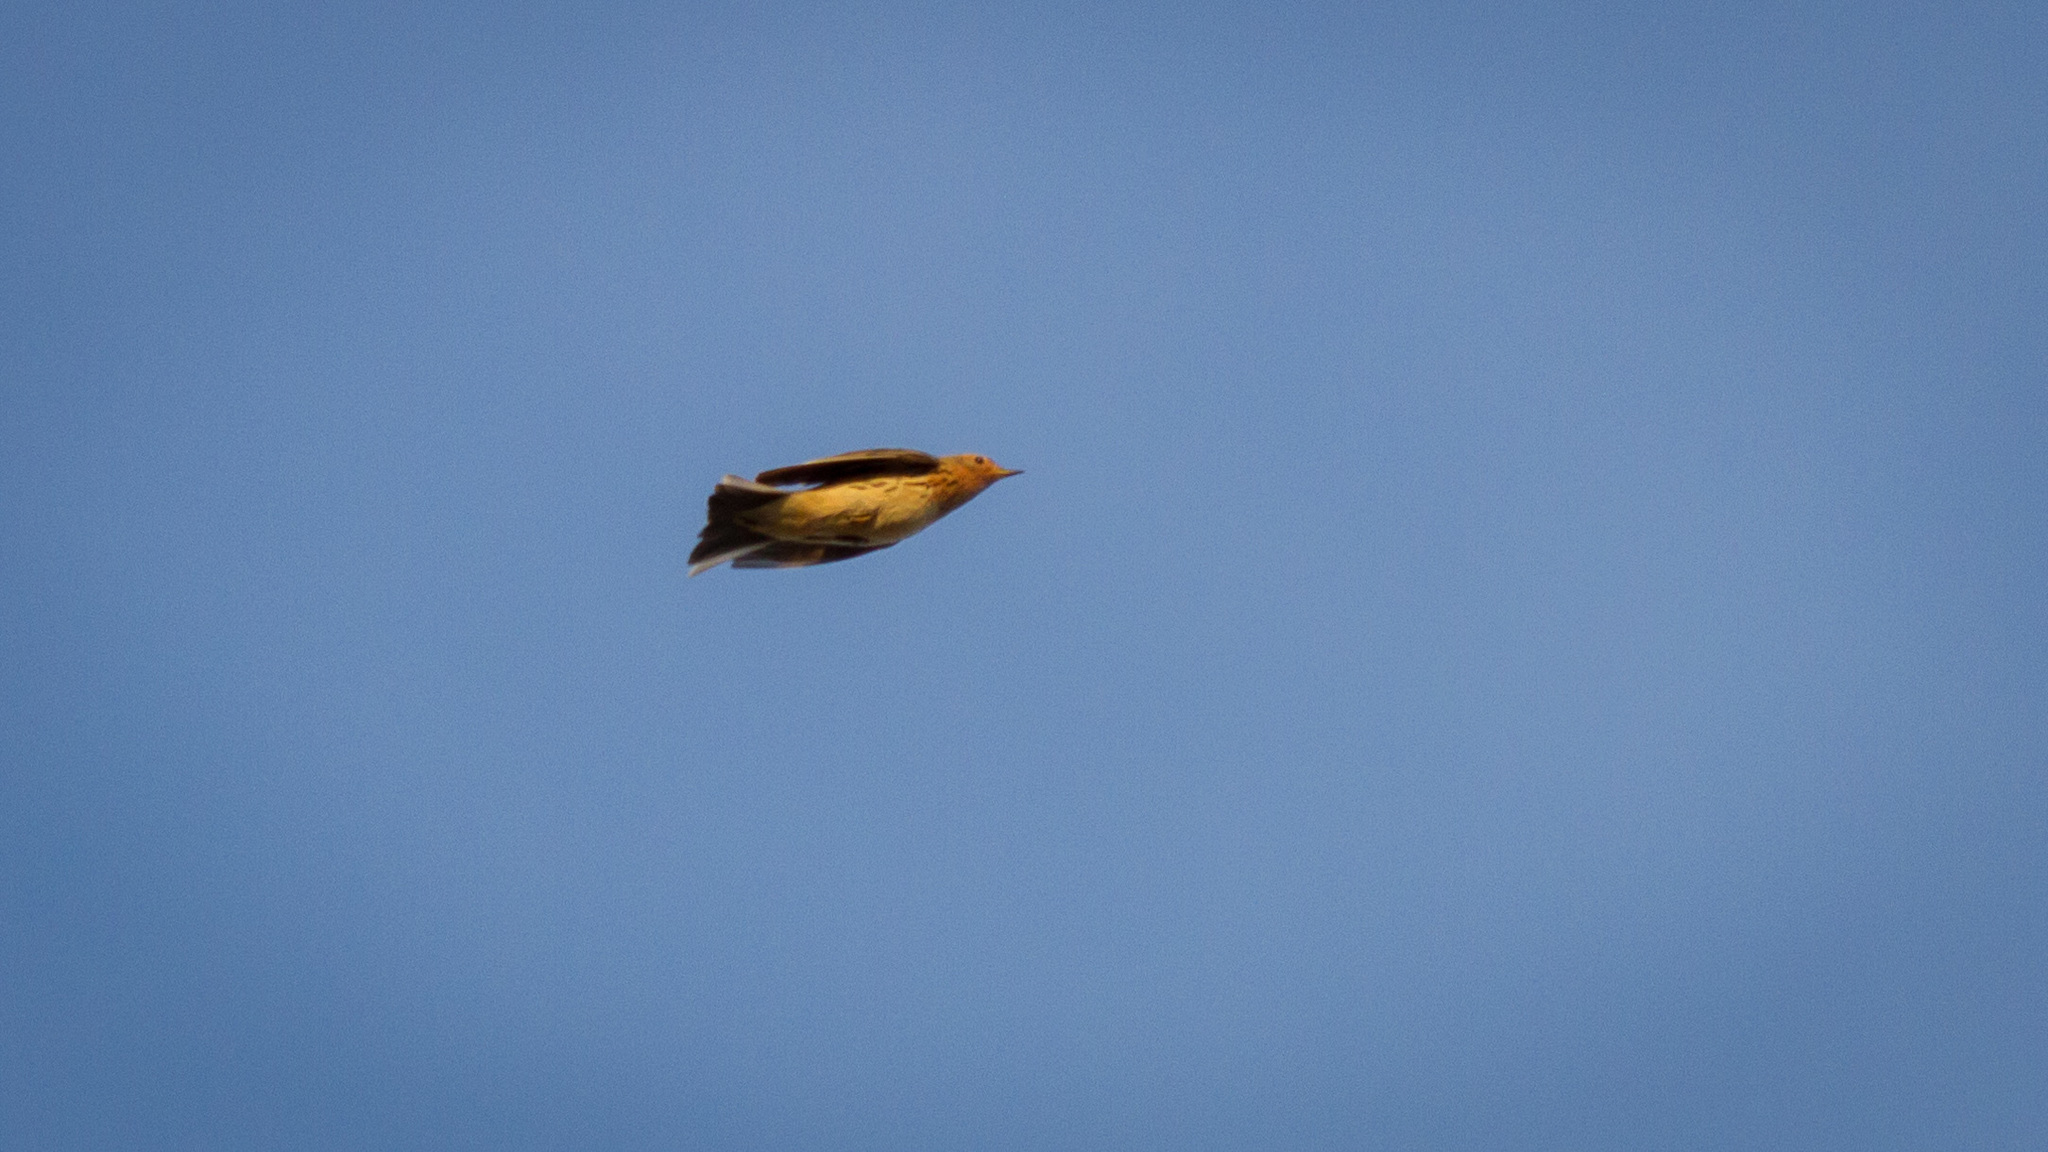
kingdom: Animalia
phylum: Chordata
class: Aves
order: Passeriformes
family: Motacillidae
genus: Anthus
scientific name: Anthus cervinus
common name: Red-throated pipit
